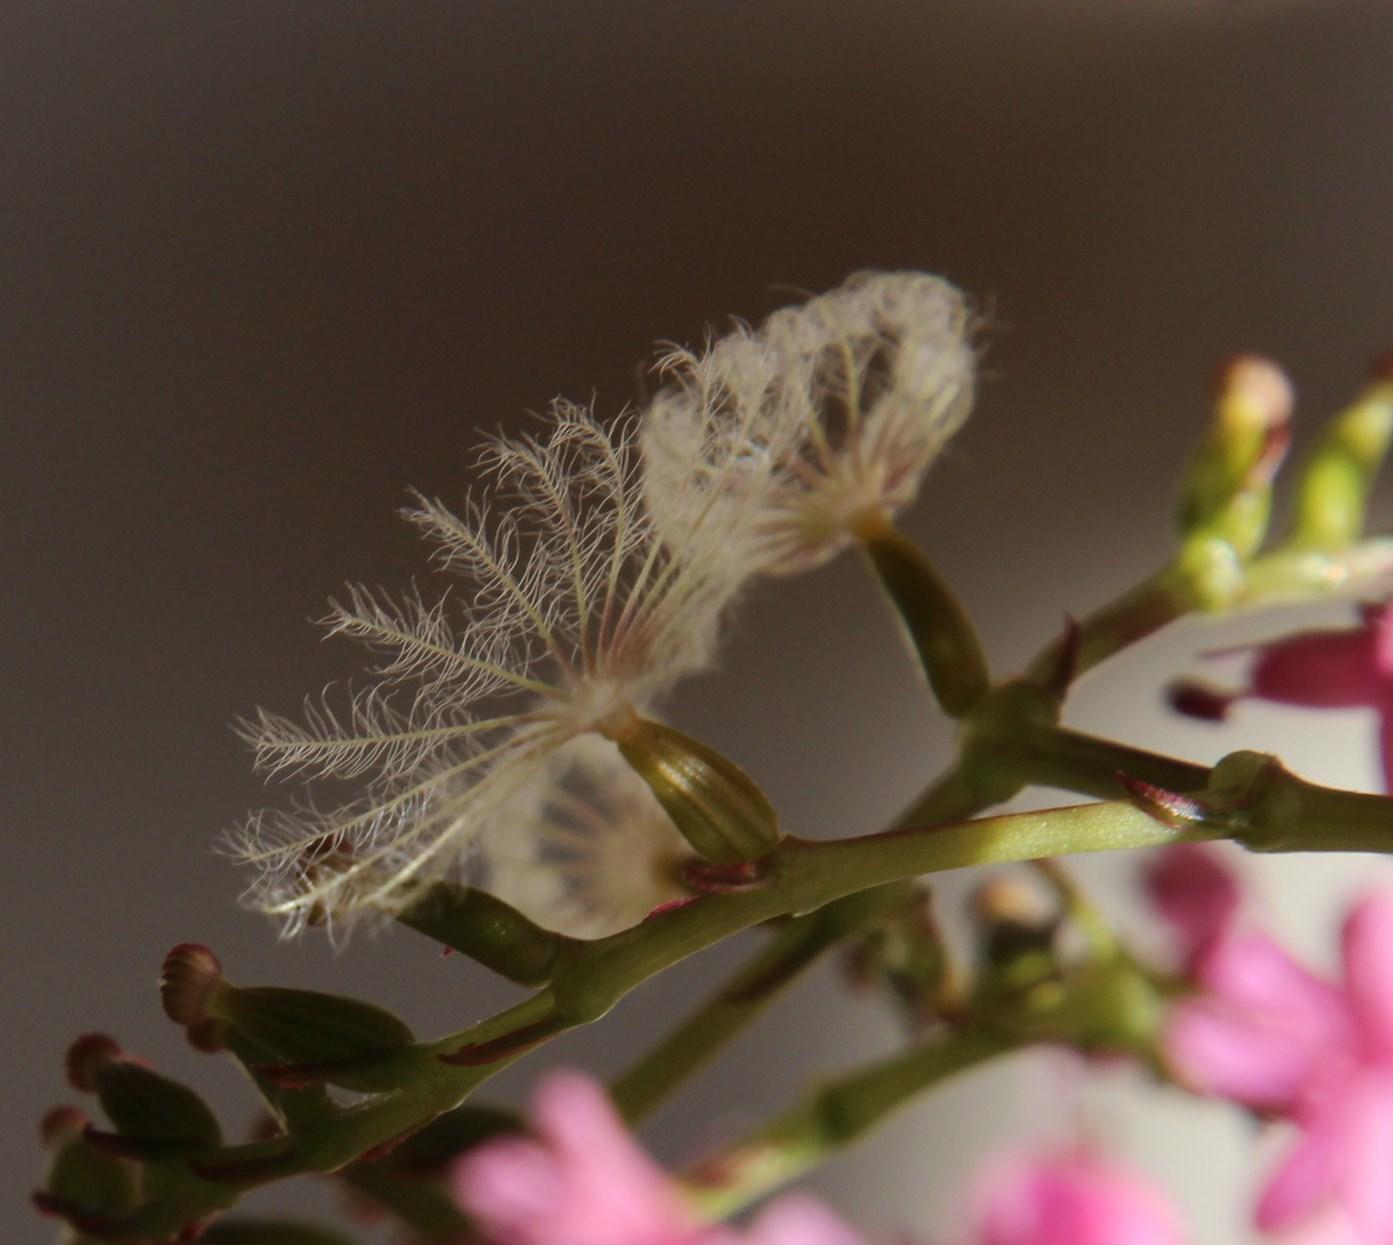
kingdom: Plantae
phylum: Tracheophyta
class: Magnoliopsida
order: Dipsacales
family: Caprifoliaceae
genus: Centranthus
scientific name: Centranthus ruber
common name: Red valerian
